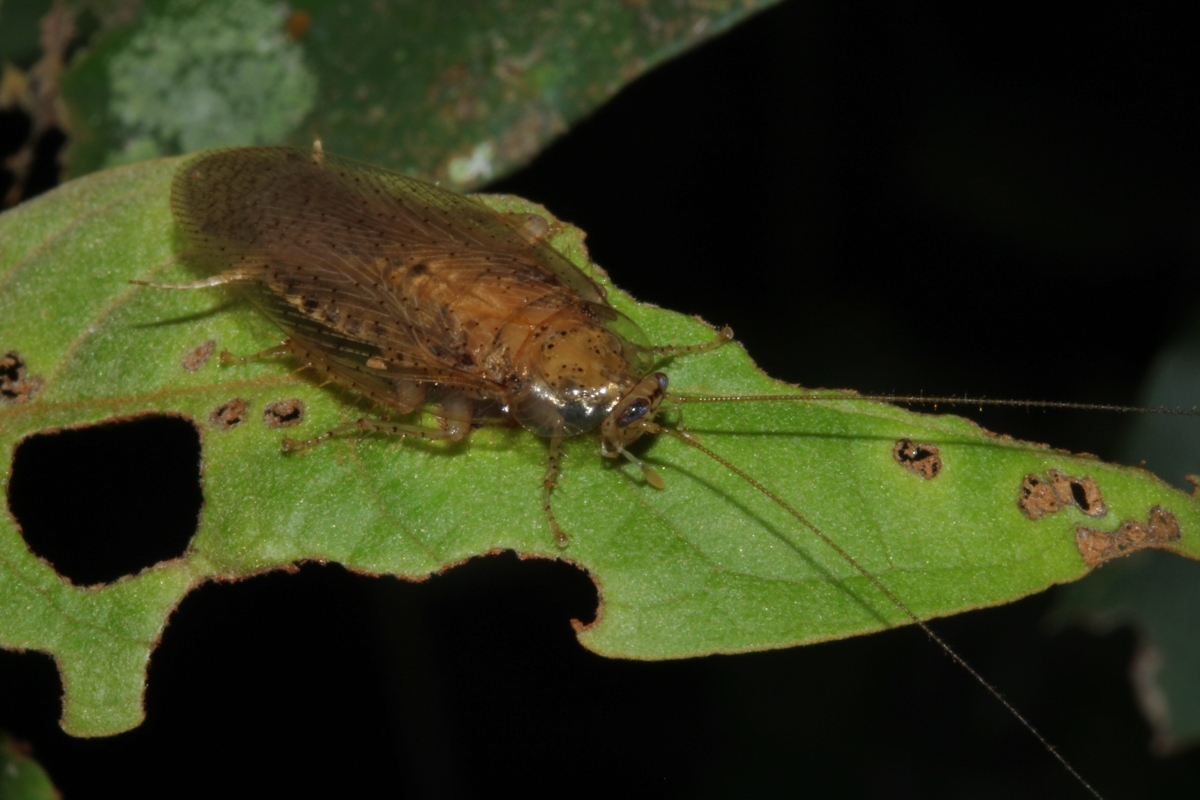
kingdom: Animalia
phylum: Arthropoda
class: Insecta
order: Blattodea
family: Pseudophyllodromiidae
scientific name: Pseudophyllodromiidae
